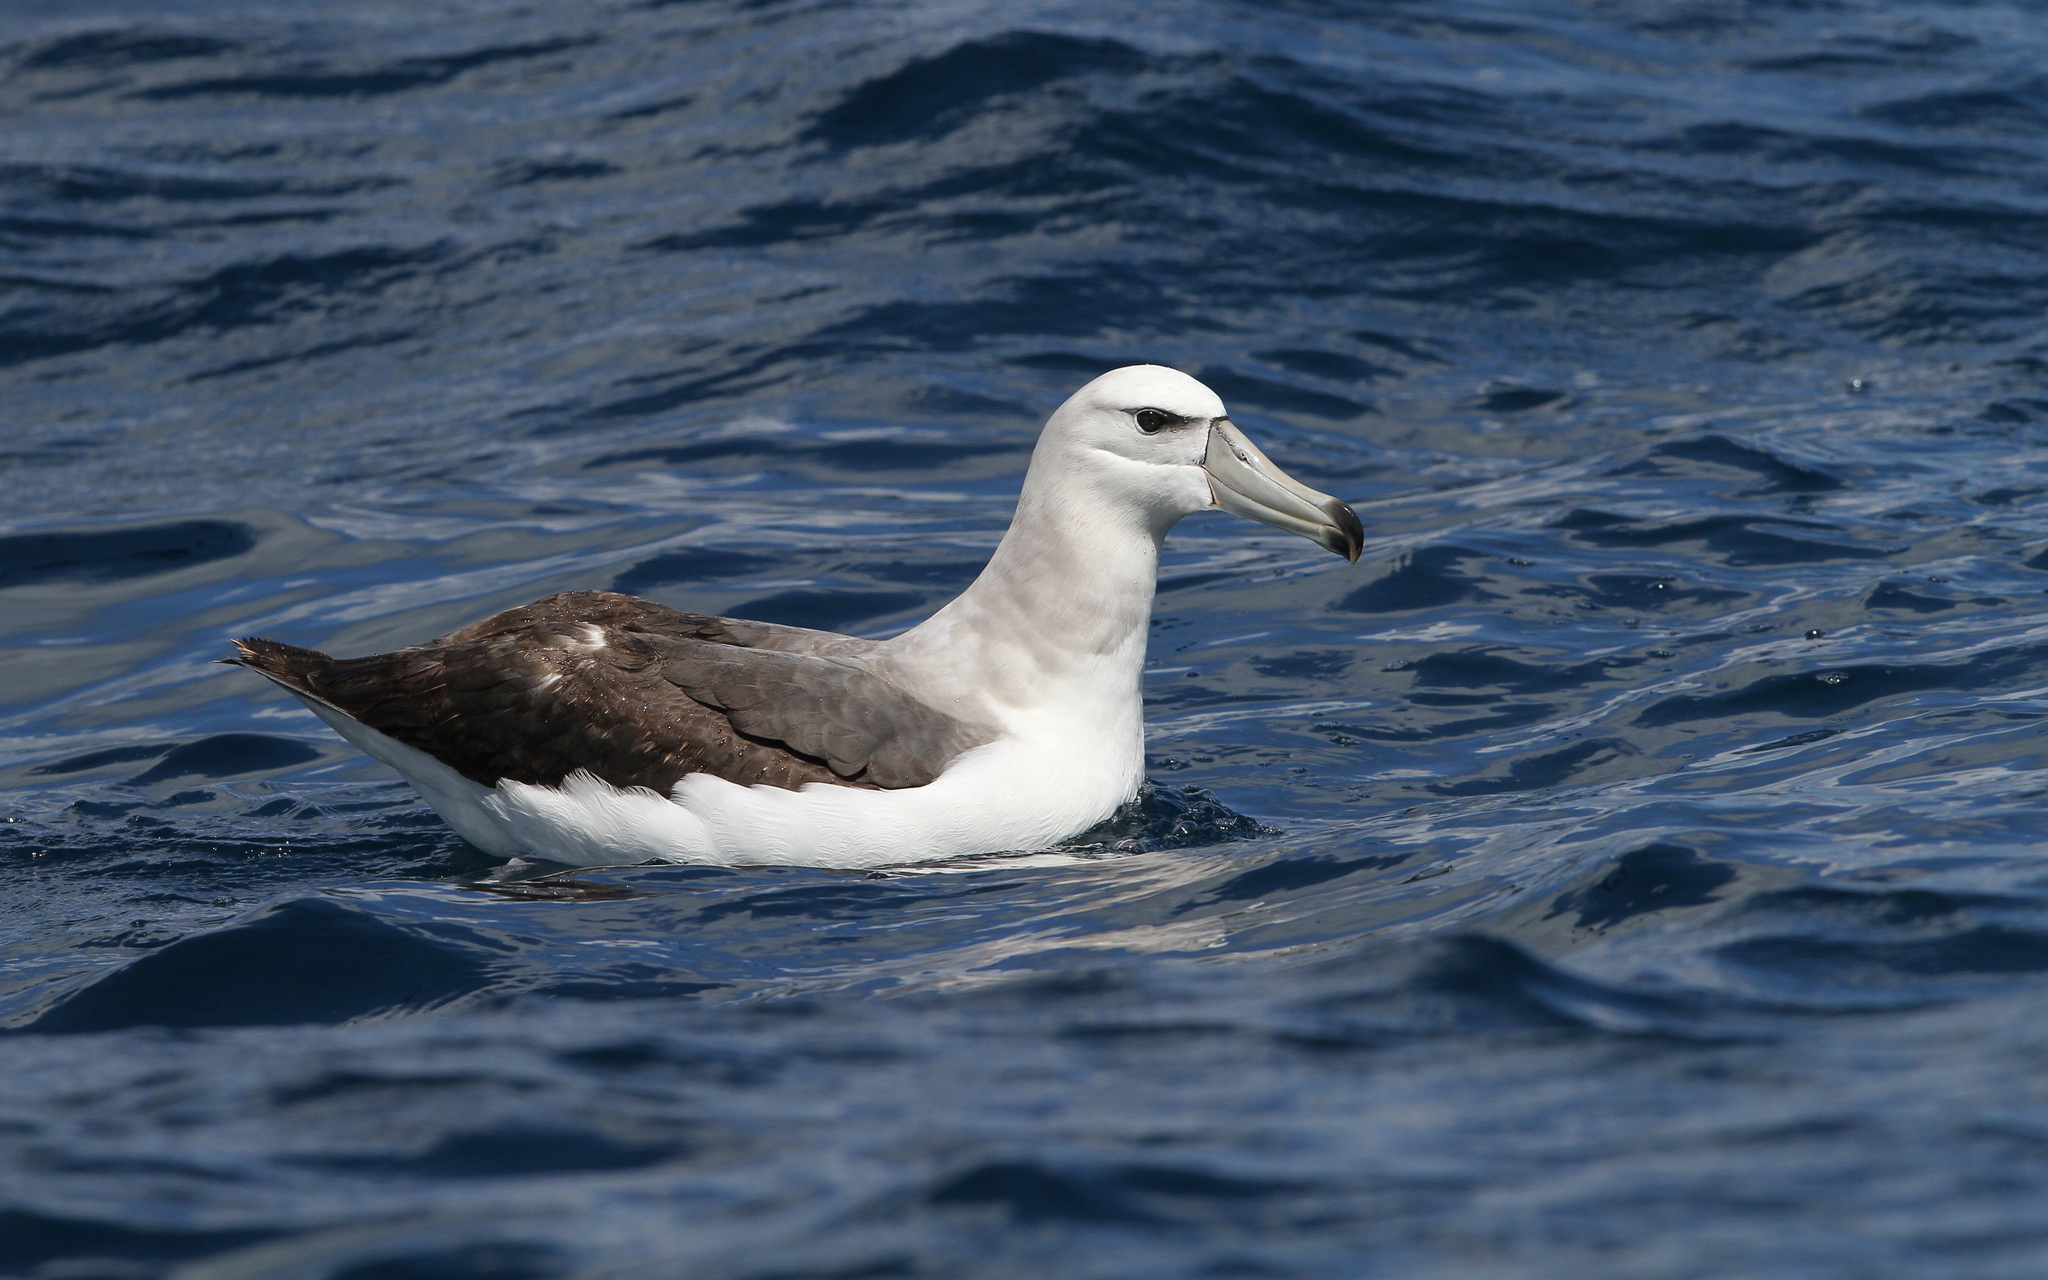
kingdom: Animalia
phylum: Chordata
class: Aves
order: Procellariiformes
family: Diomedeidae
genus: Thalassarche
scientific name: Thalassarche cauta
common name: Shy albatross
